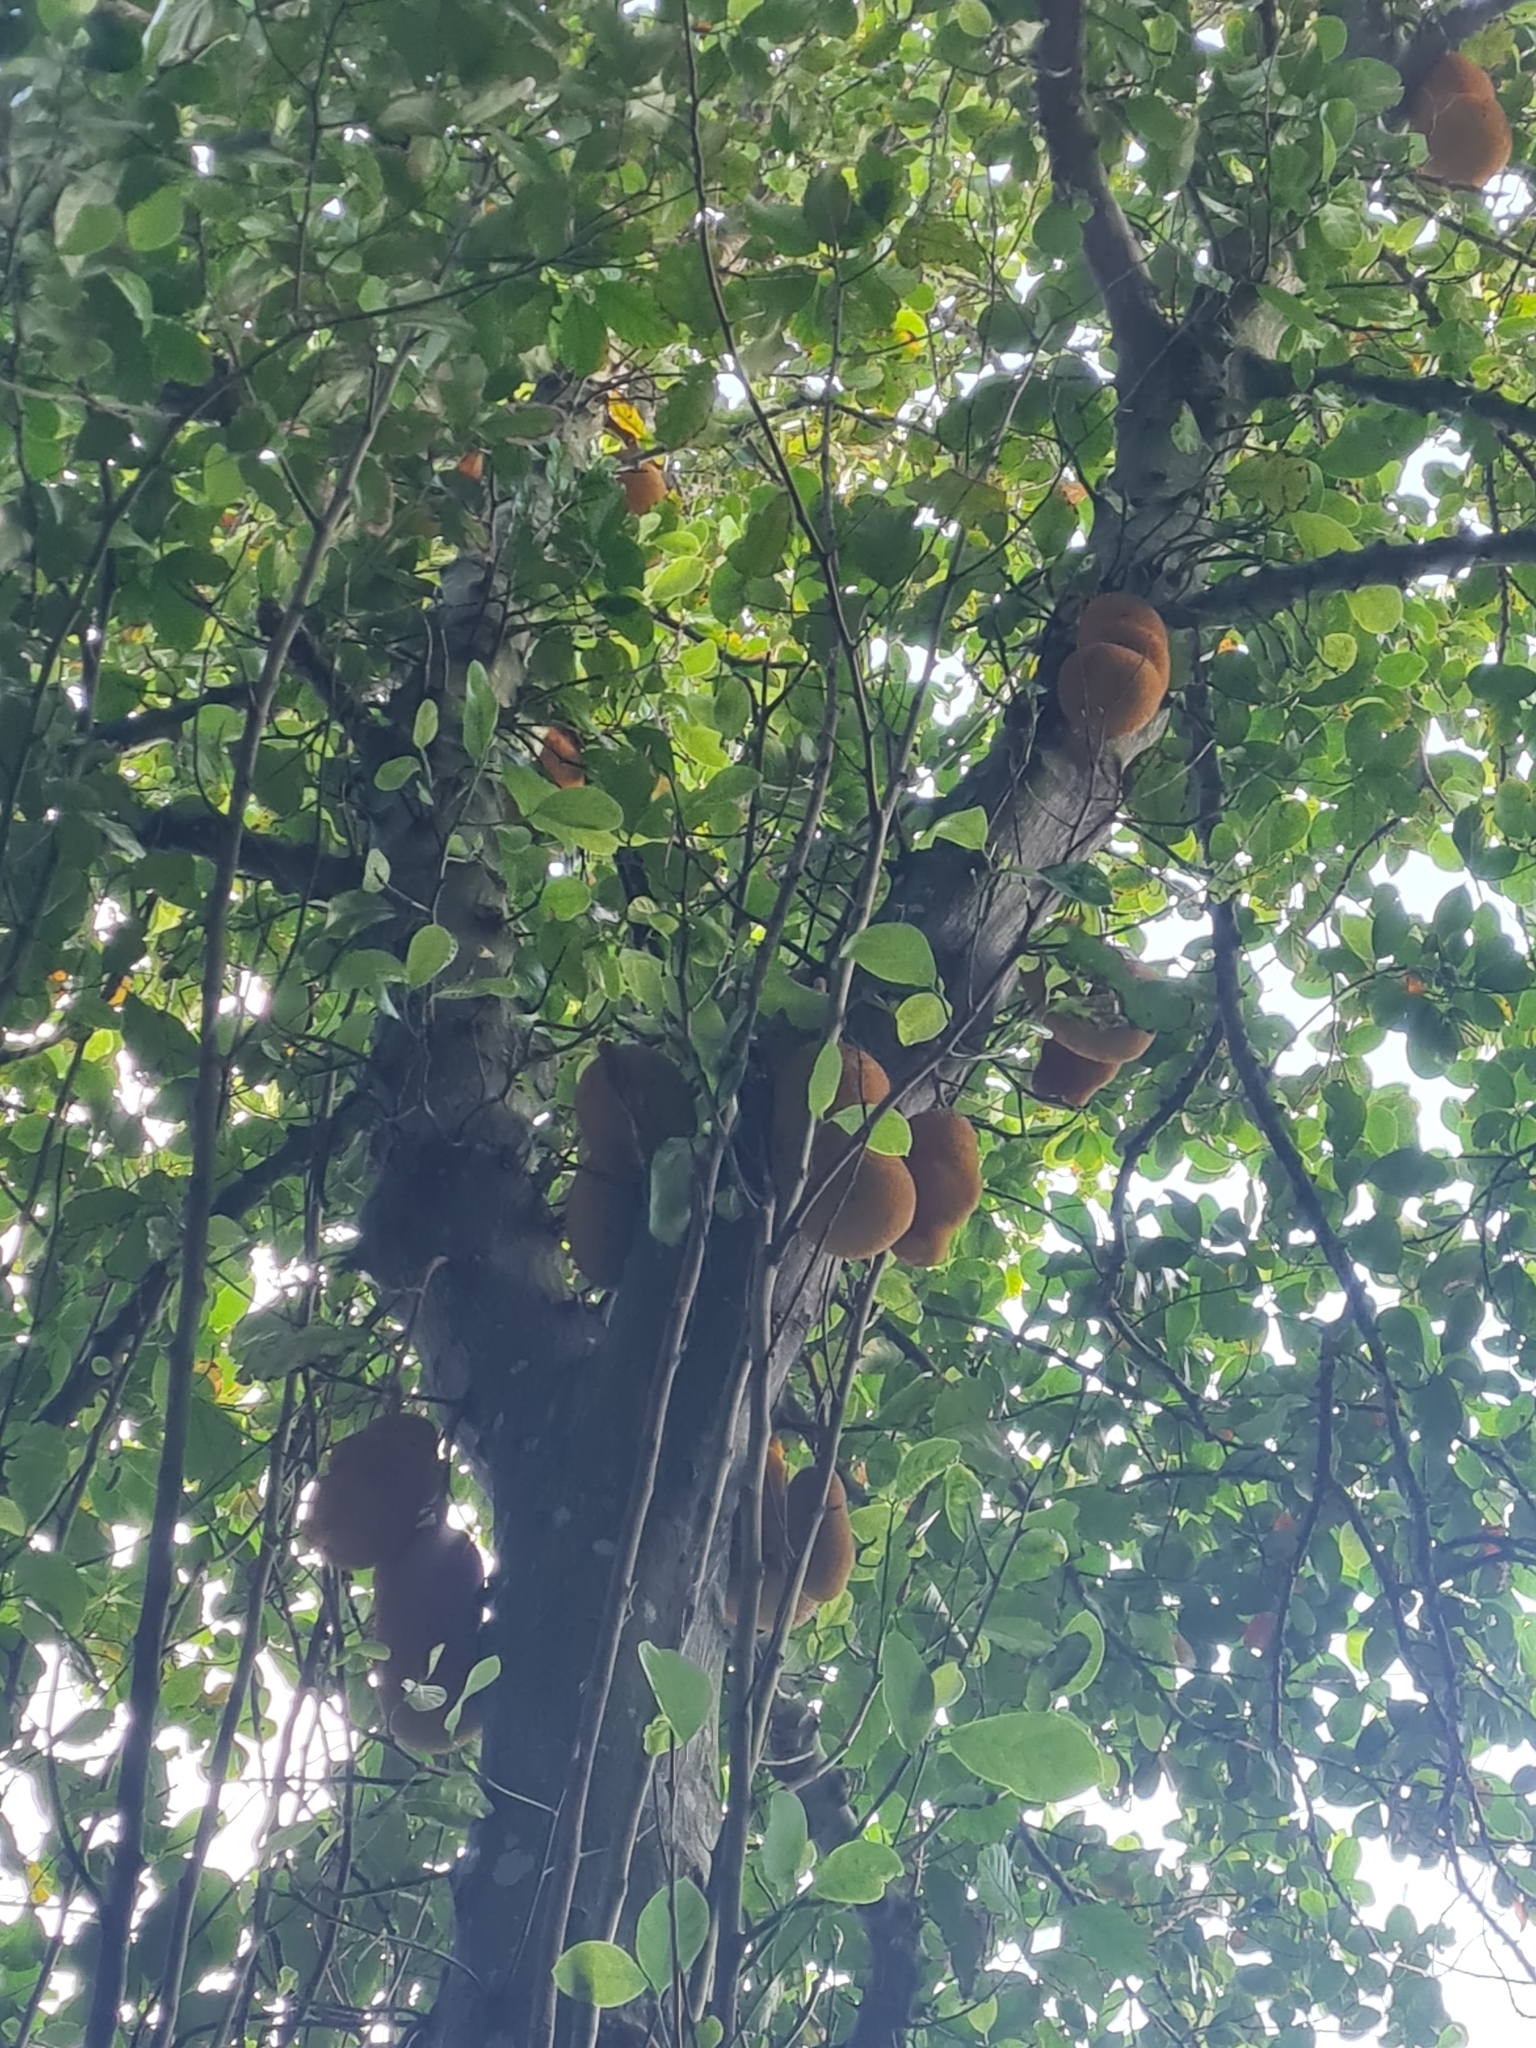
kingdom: Plantae
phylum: Tracheophyta
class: Magnoliopsida
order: Rosales
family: Moraceae
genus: Artocarpus
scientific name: Artocarpus heterophyllus
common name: Jackfruit
